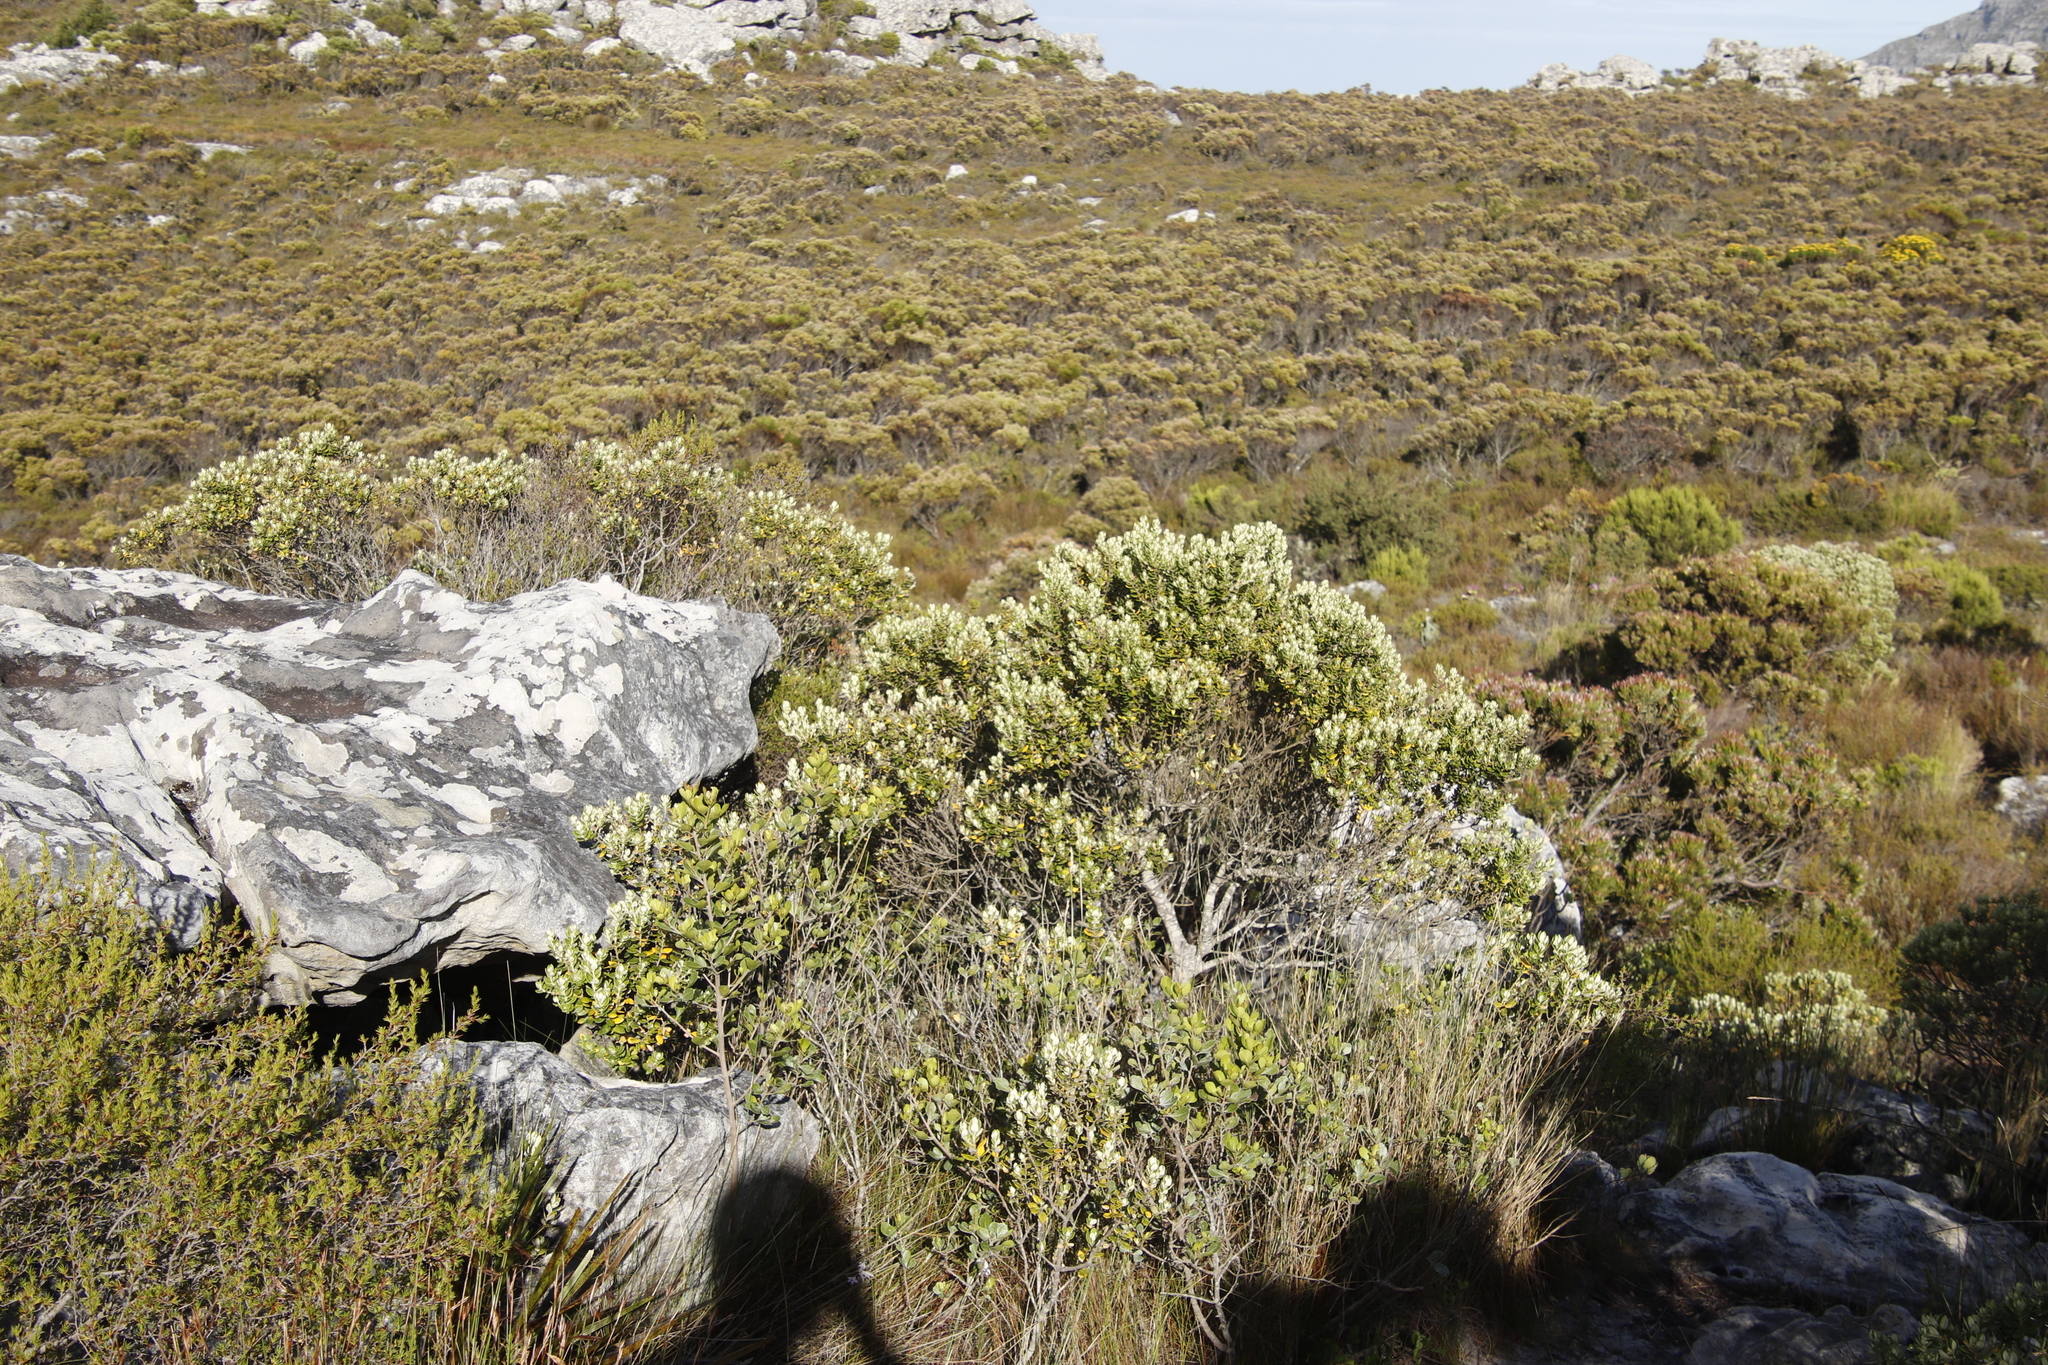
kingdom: Plantae
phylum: Tracheophyta
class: Magnoliopsida
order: Rosales
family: Rhamnaceae
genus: Phylica
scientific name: Phylica buxifolia
